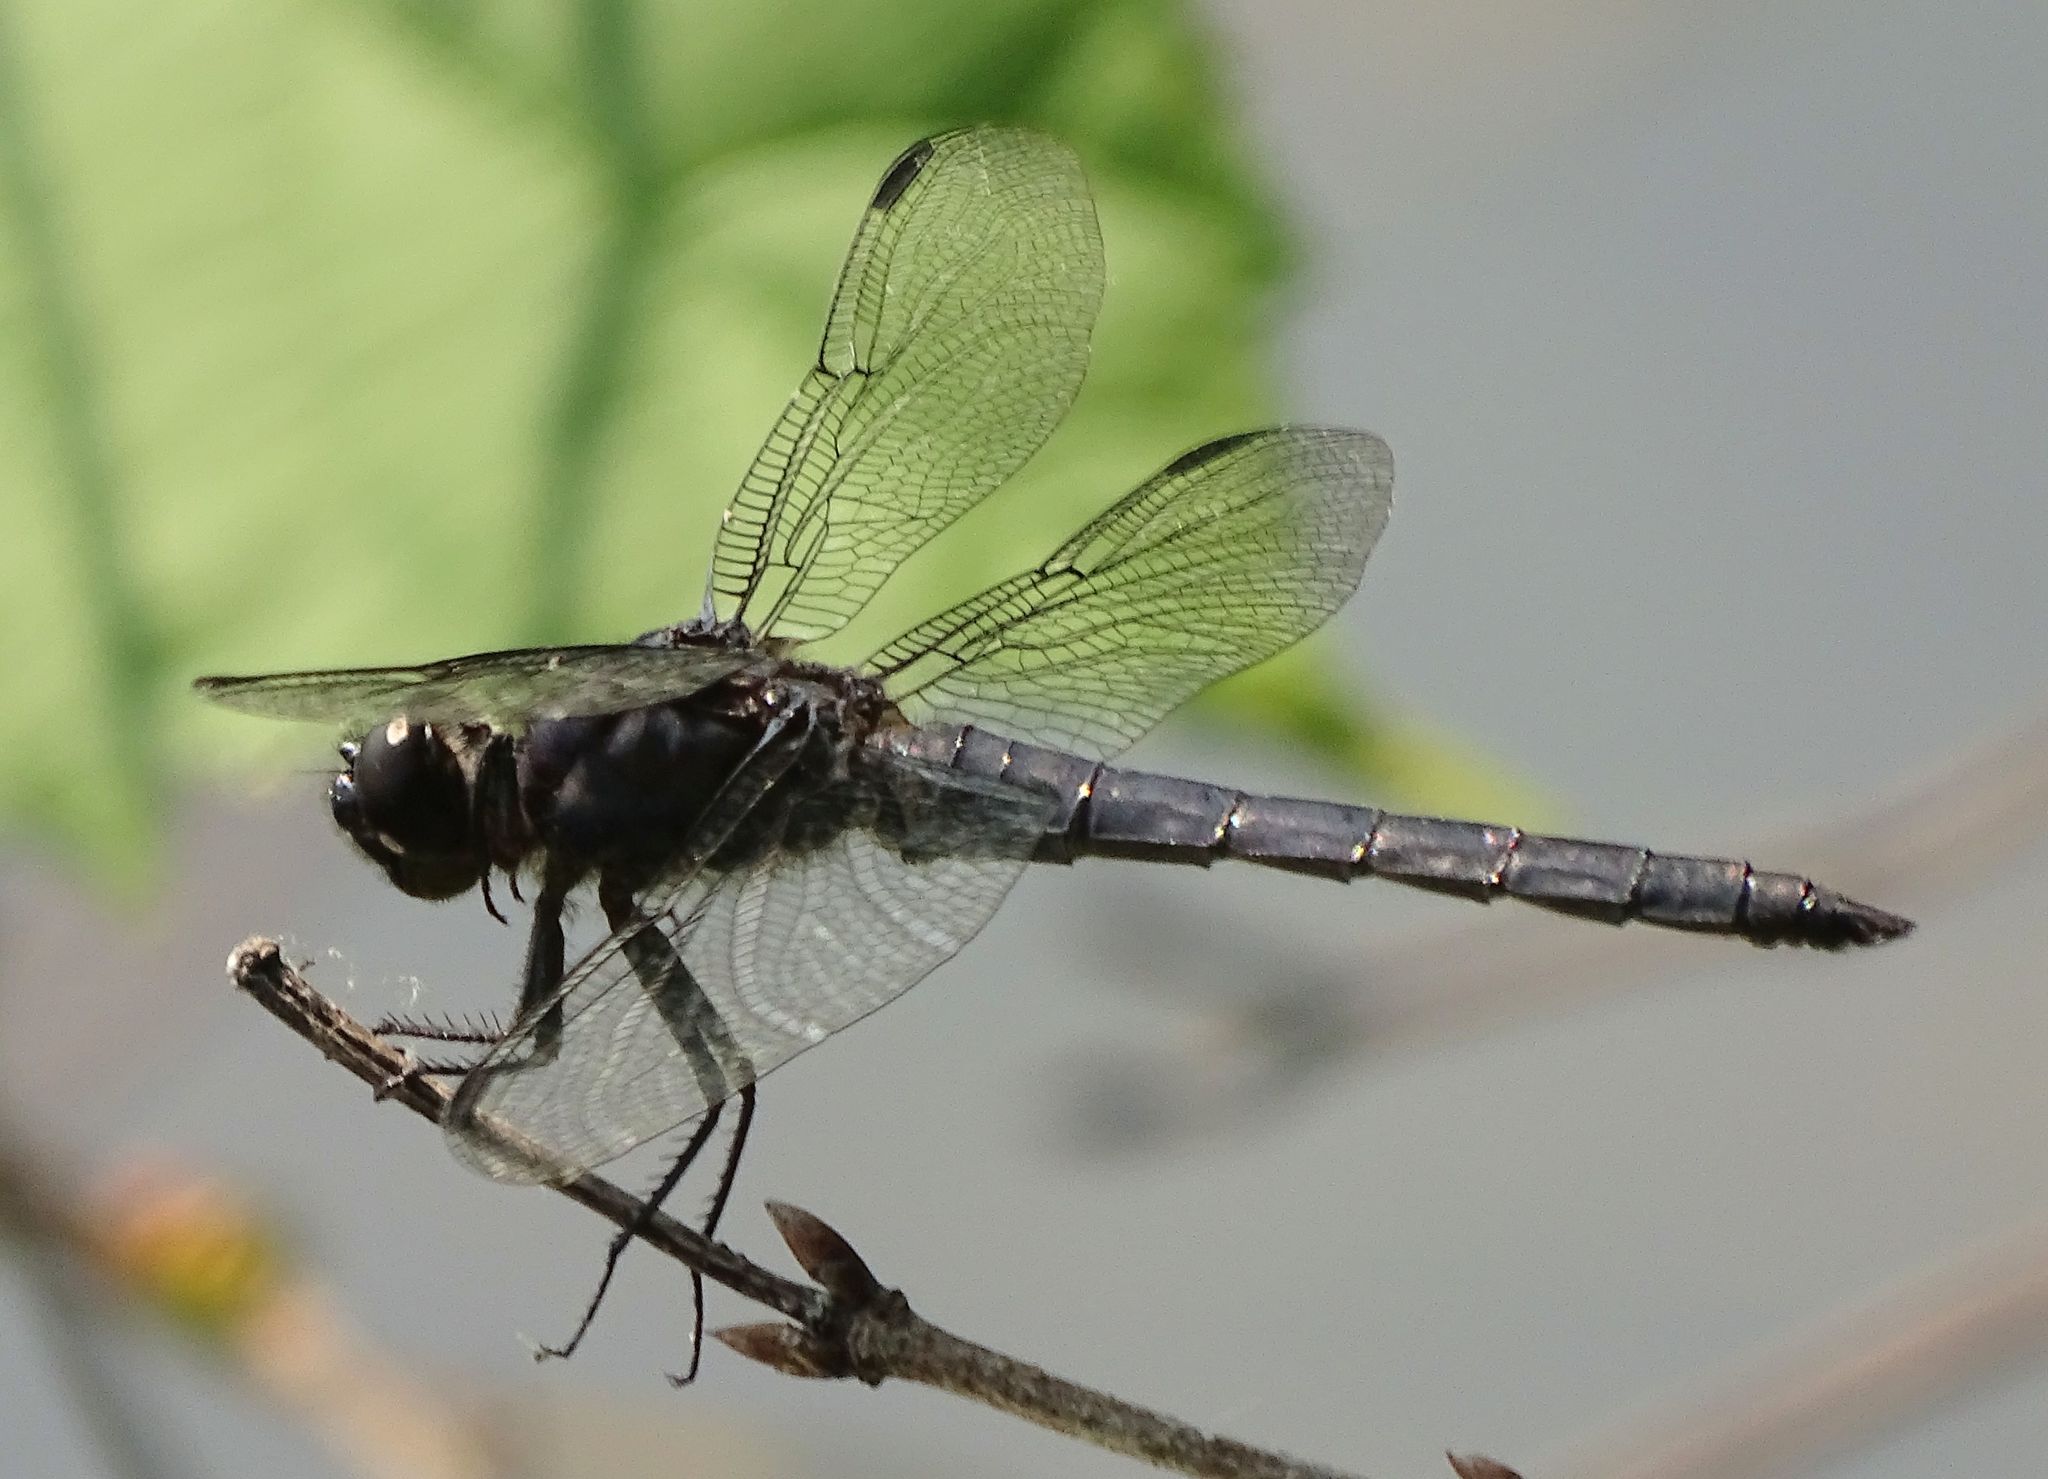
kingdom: Animalia
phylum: Arthropoda
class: Insecta
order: Odonata
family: Libellulidae
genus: Libellula
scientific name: Libellula incesta
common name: Slaty skimmer
